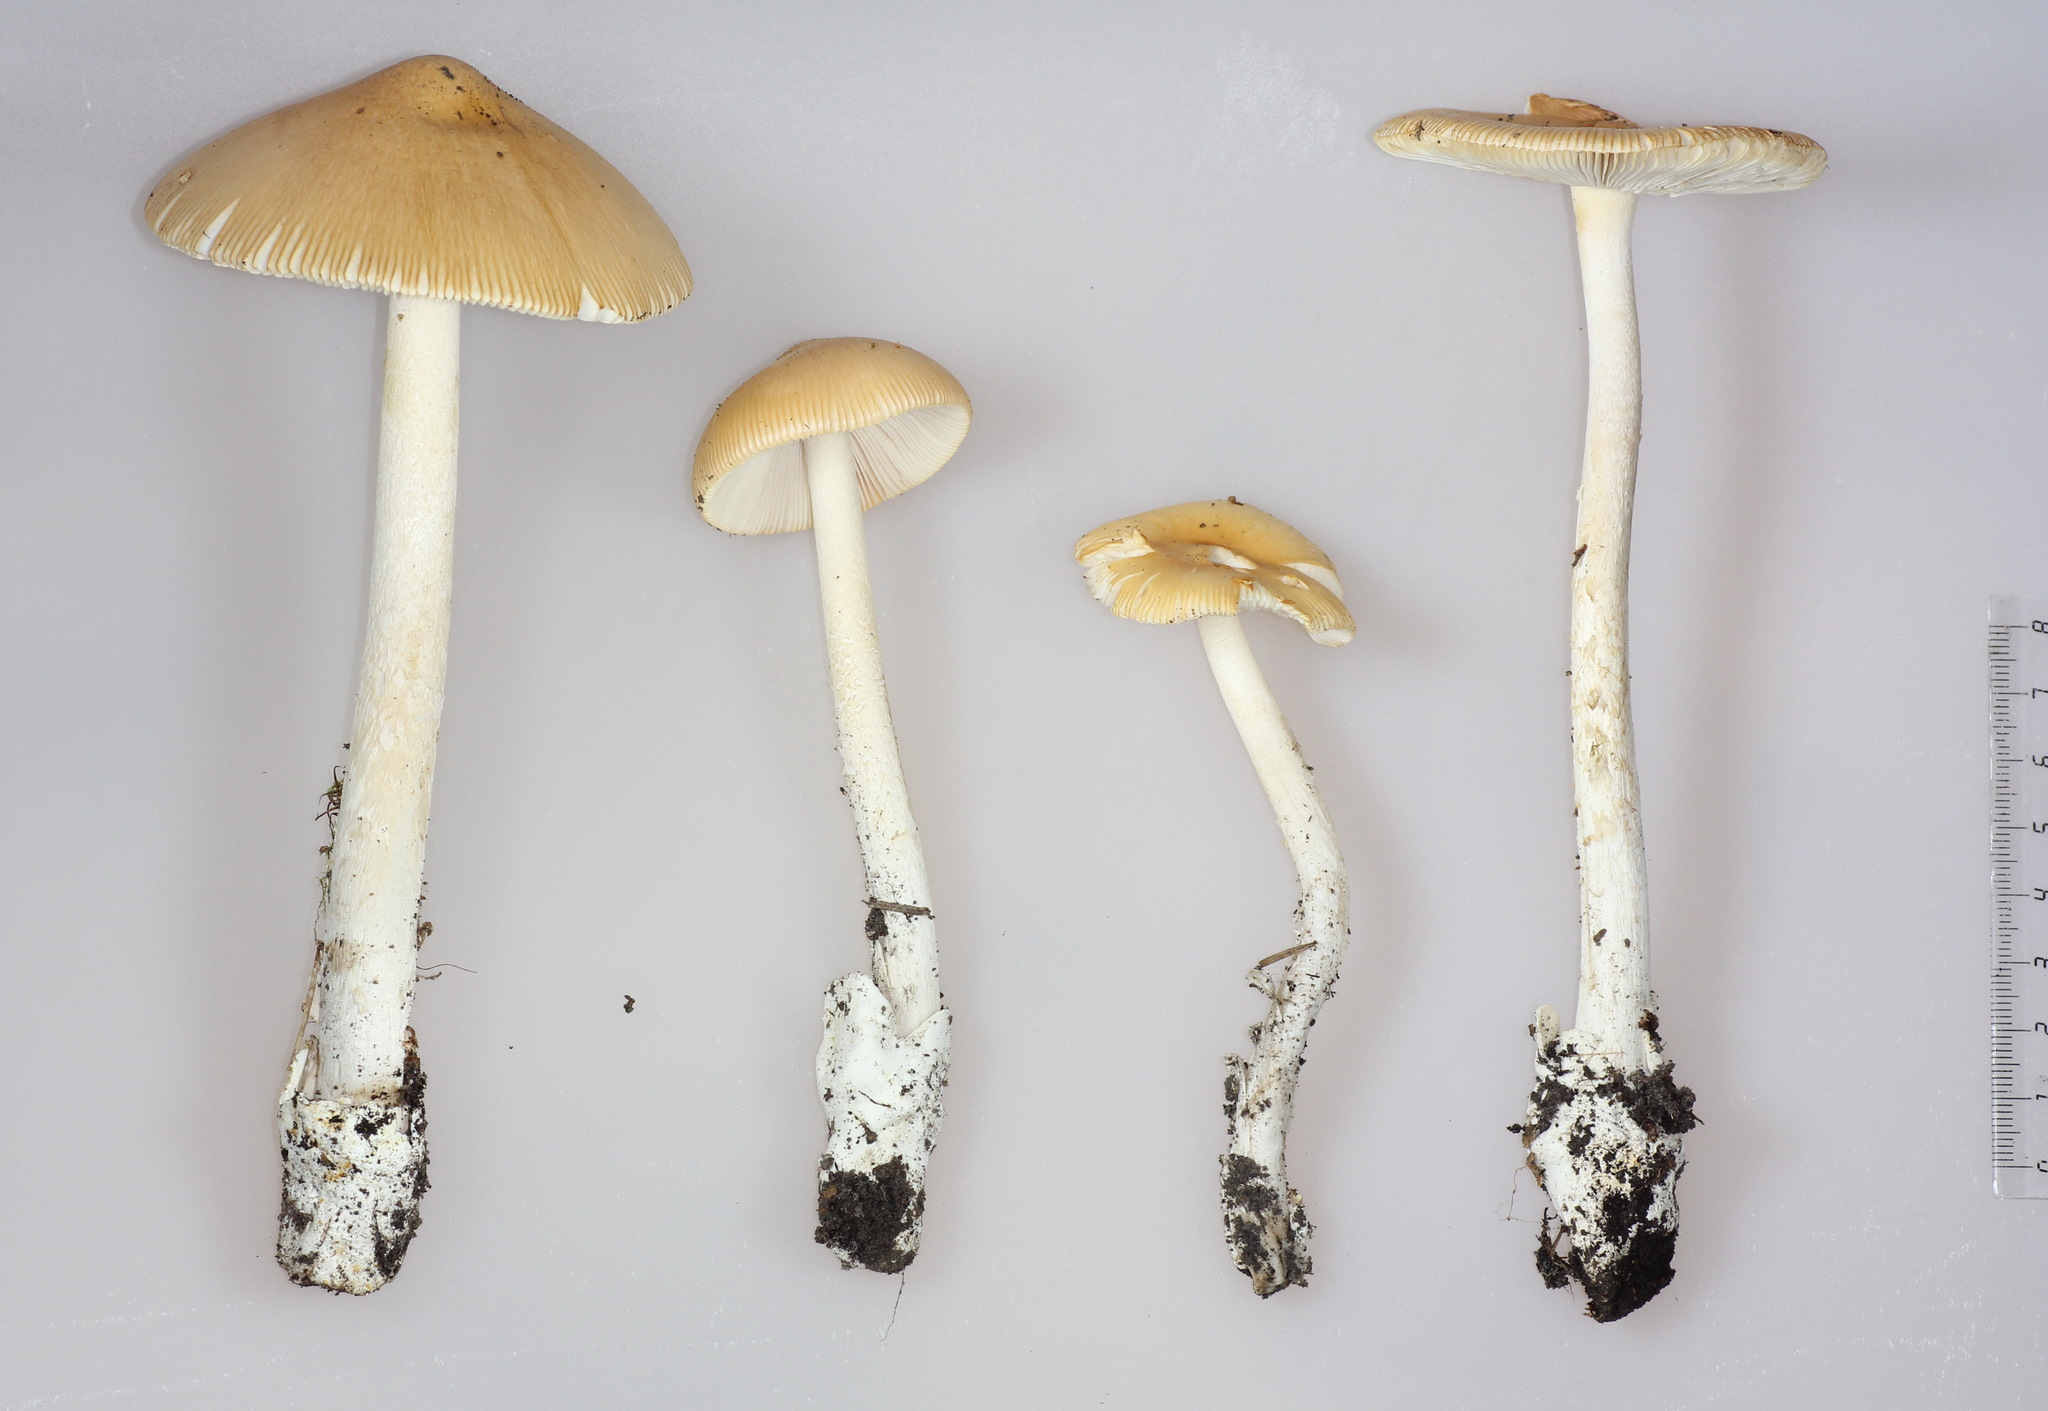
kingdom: Fungi
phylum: Basidiomycota
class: Agaricomycetes
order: Agaricales
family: Amanitaceae
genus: Amanita
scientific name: Amanita crocea
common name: Orange grisette
